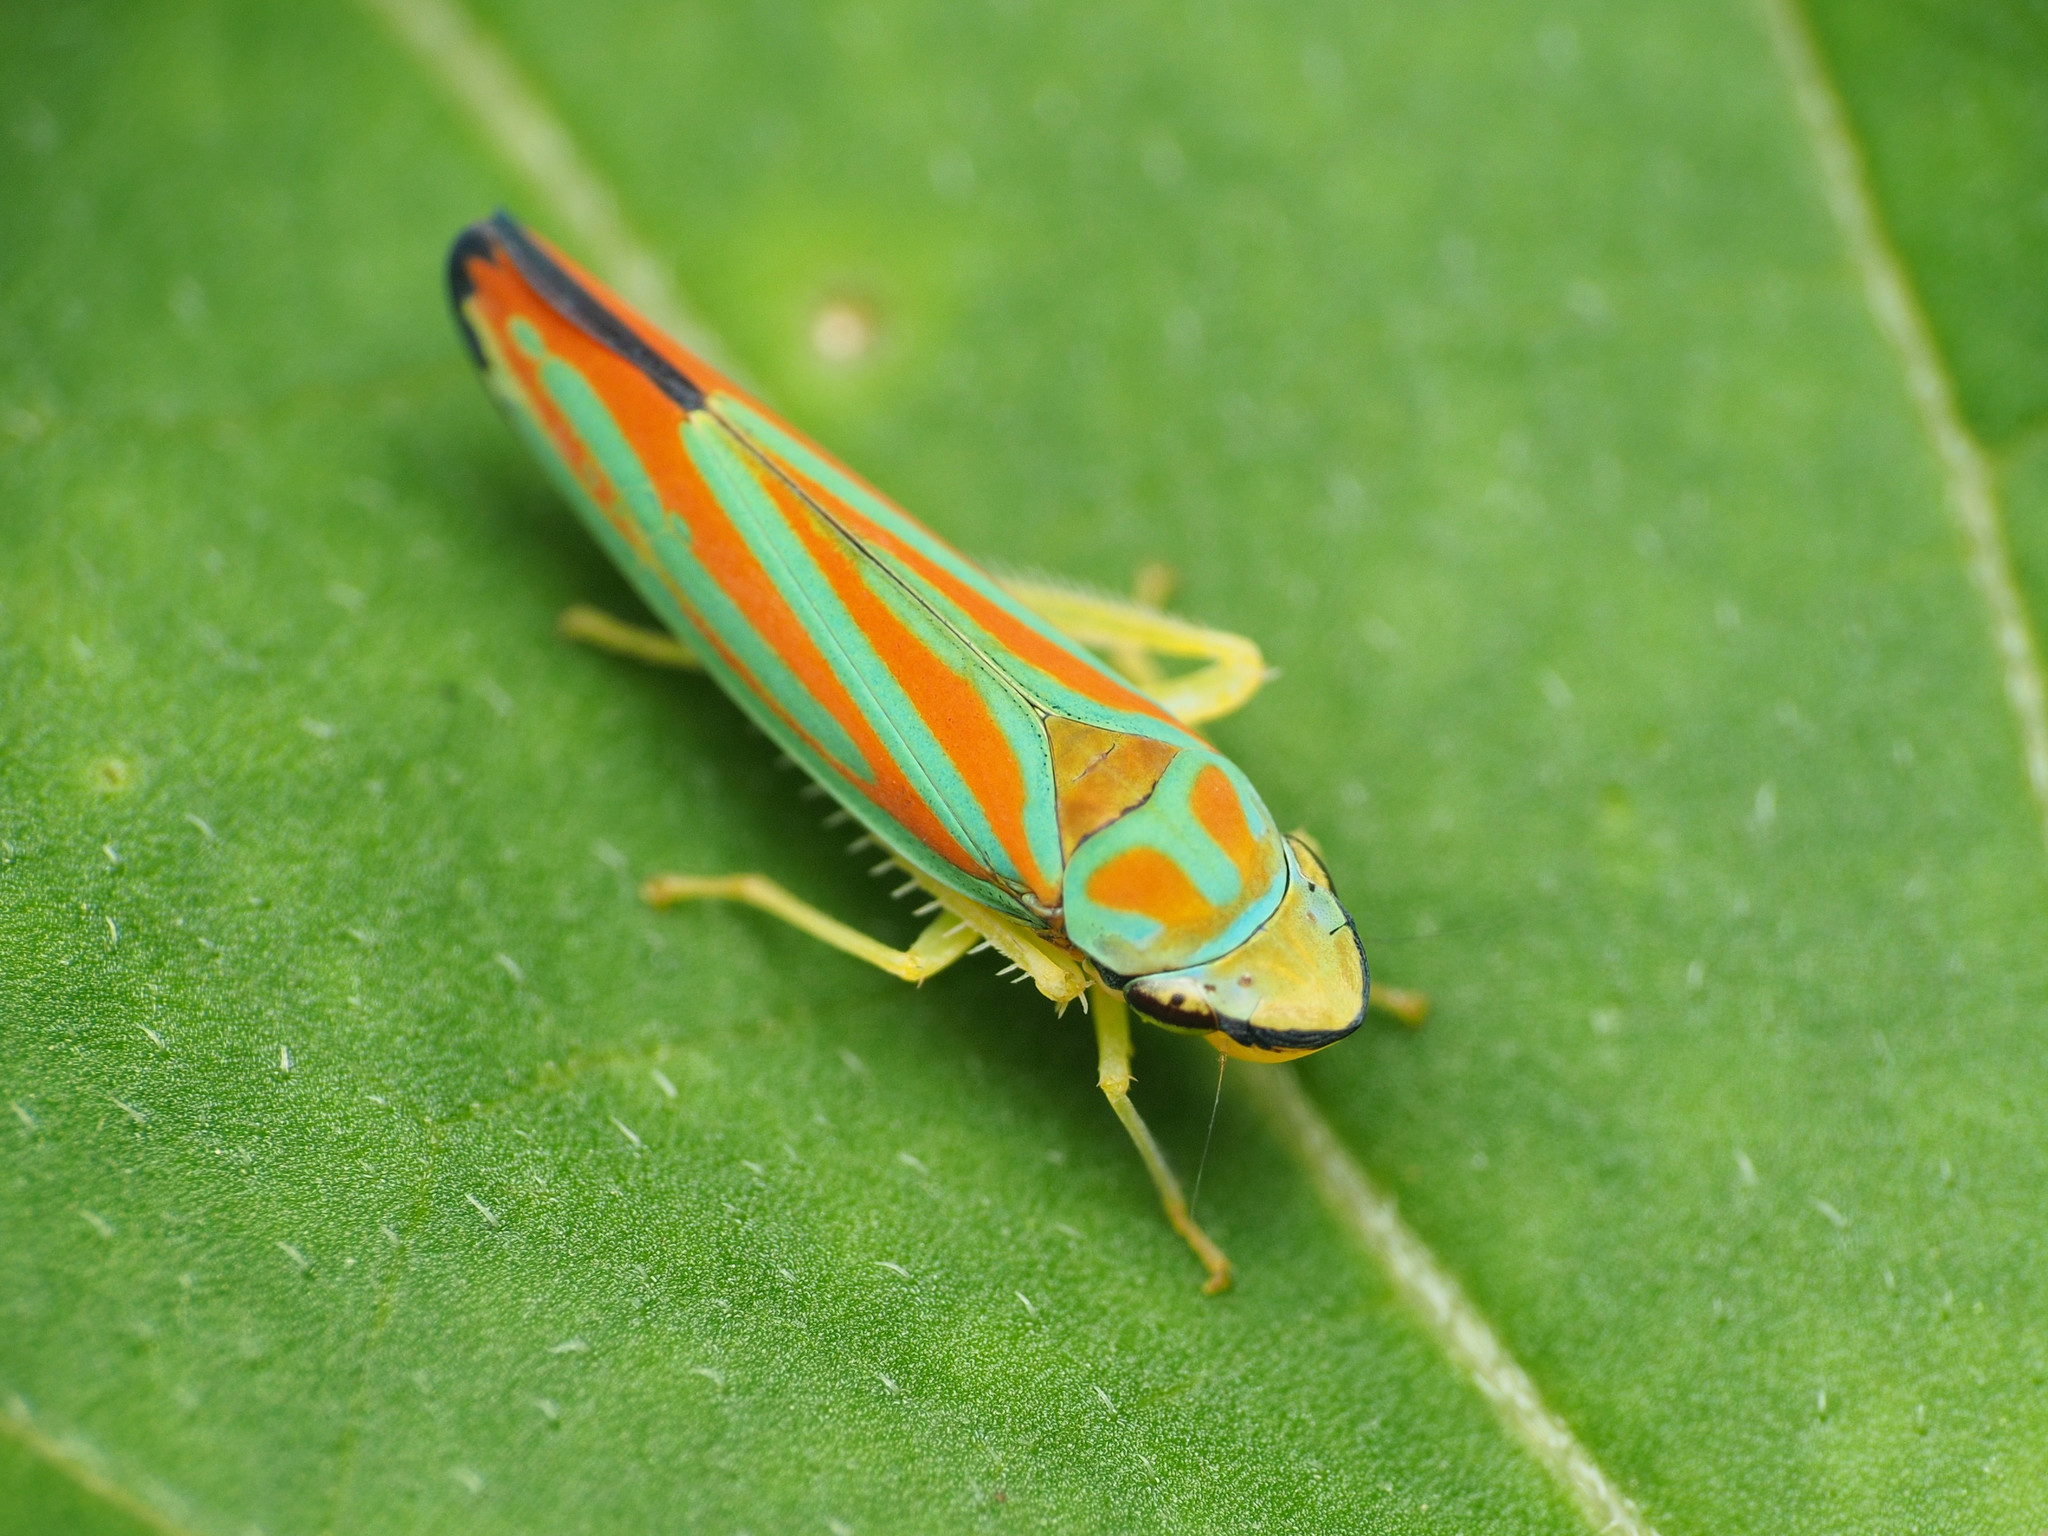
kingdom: Animalia
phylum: Arthropoda
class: Insecta
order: Hemiptera
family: Cicadellidae
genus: Graphocephala
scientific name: Graphocephala coccinea
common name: Candy-striped leafhopper
